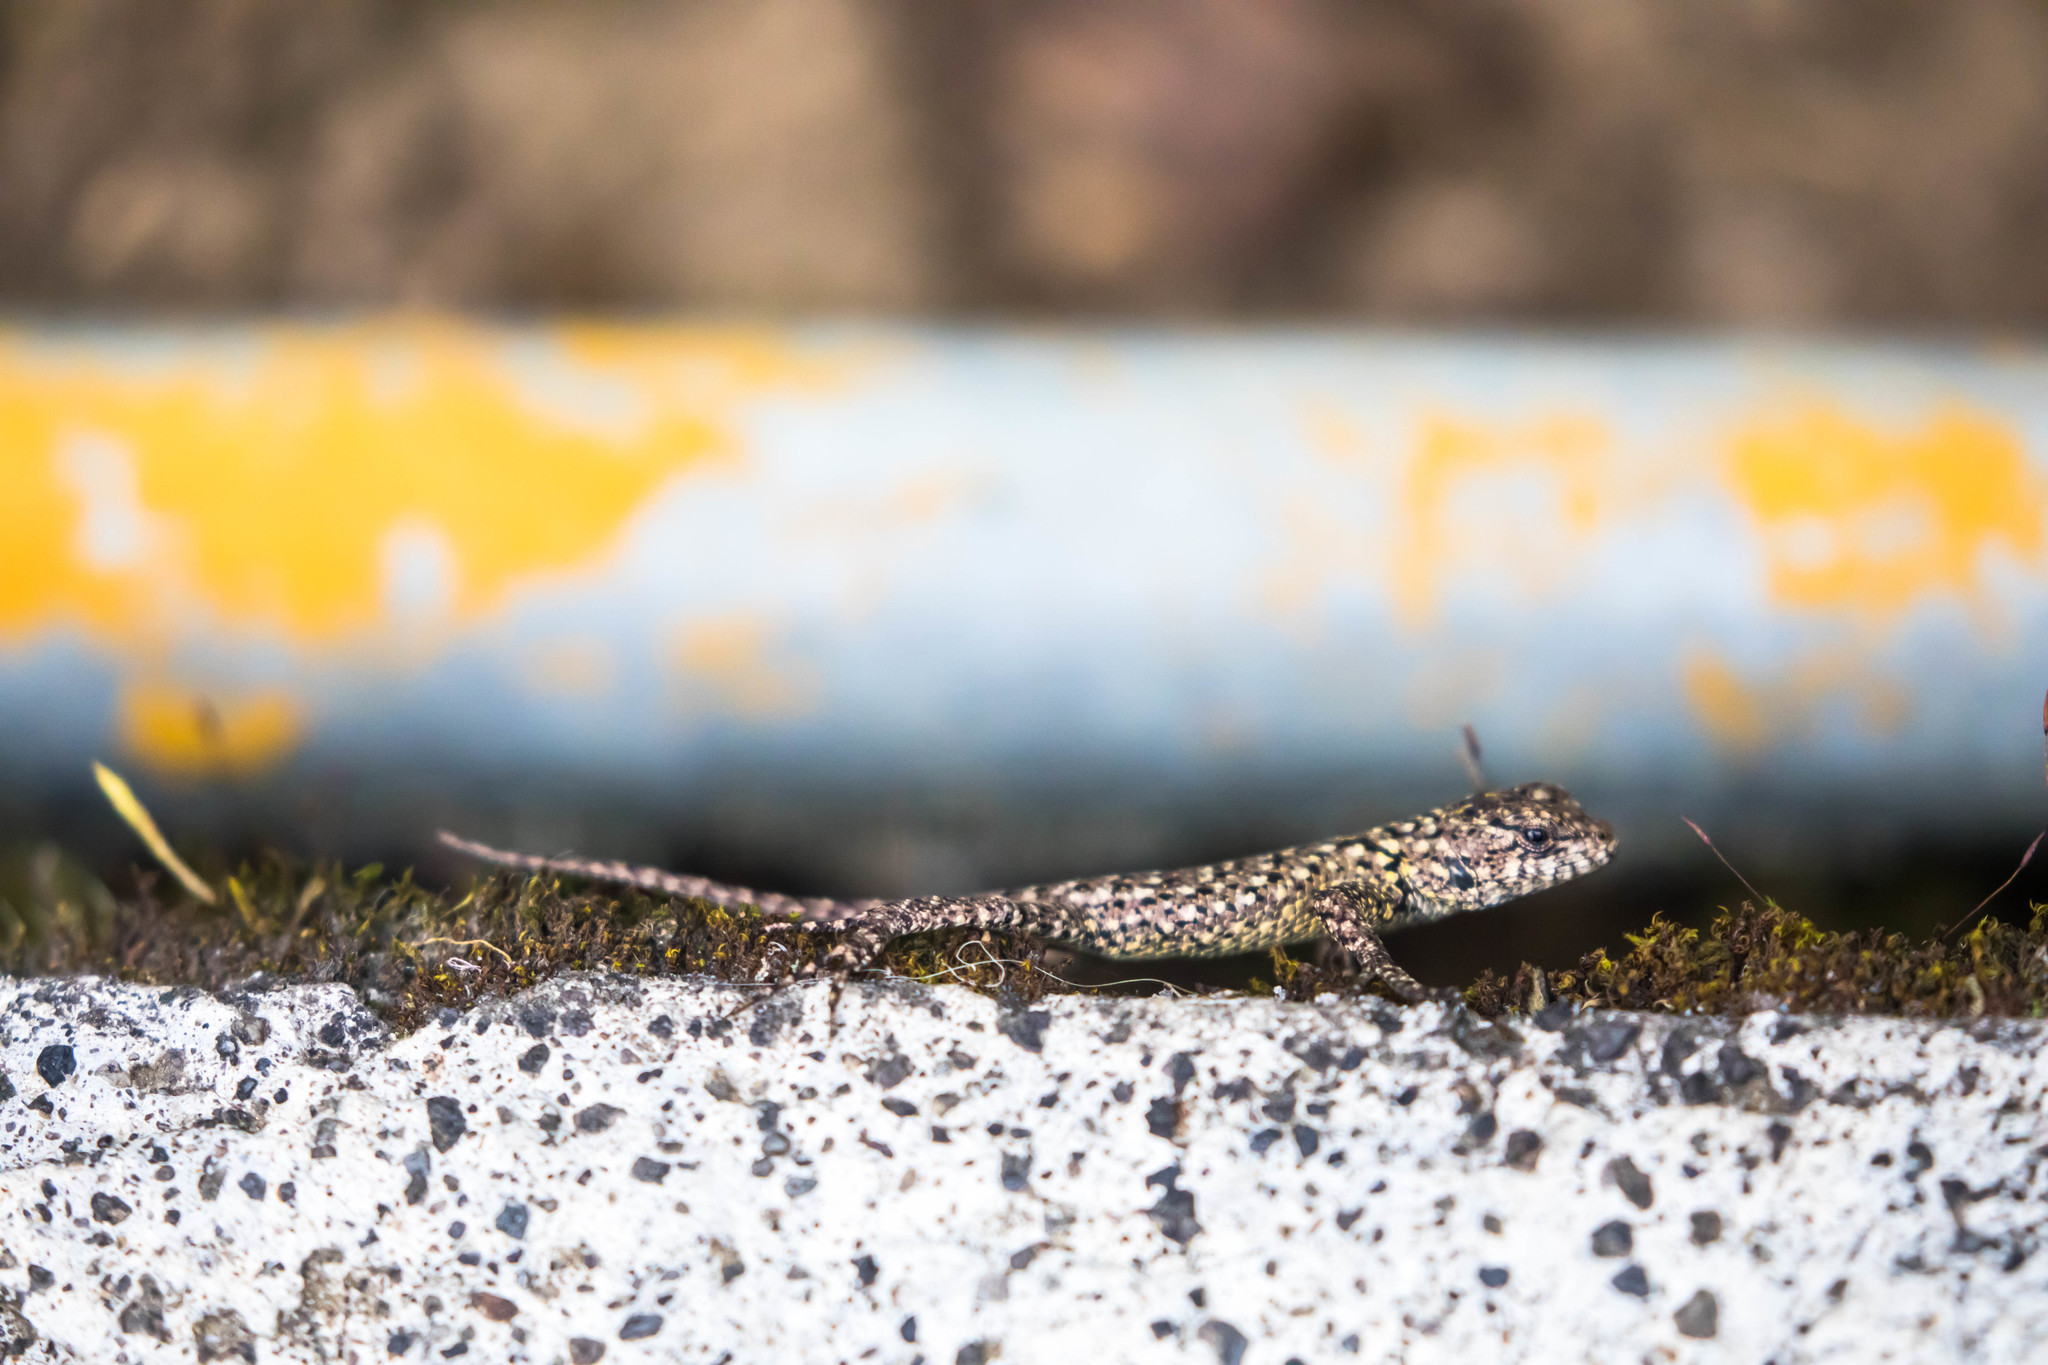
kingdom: Animalia
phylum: Chordata
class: Squamata
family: Phrynosomatidae
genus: Sceloporus
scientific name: Sceloporus malachiticus
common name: Green spiny lizard
